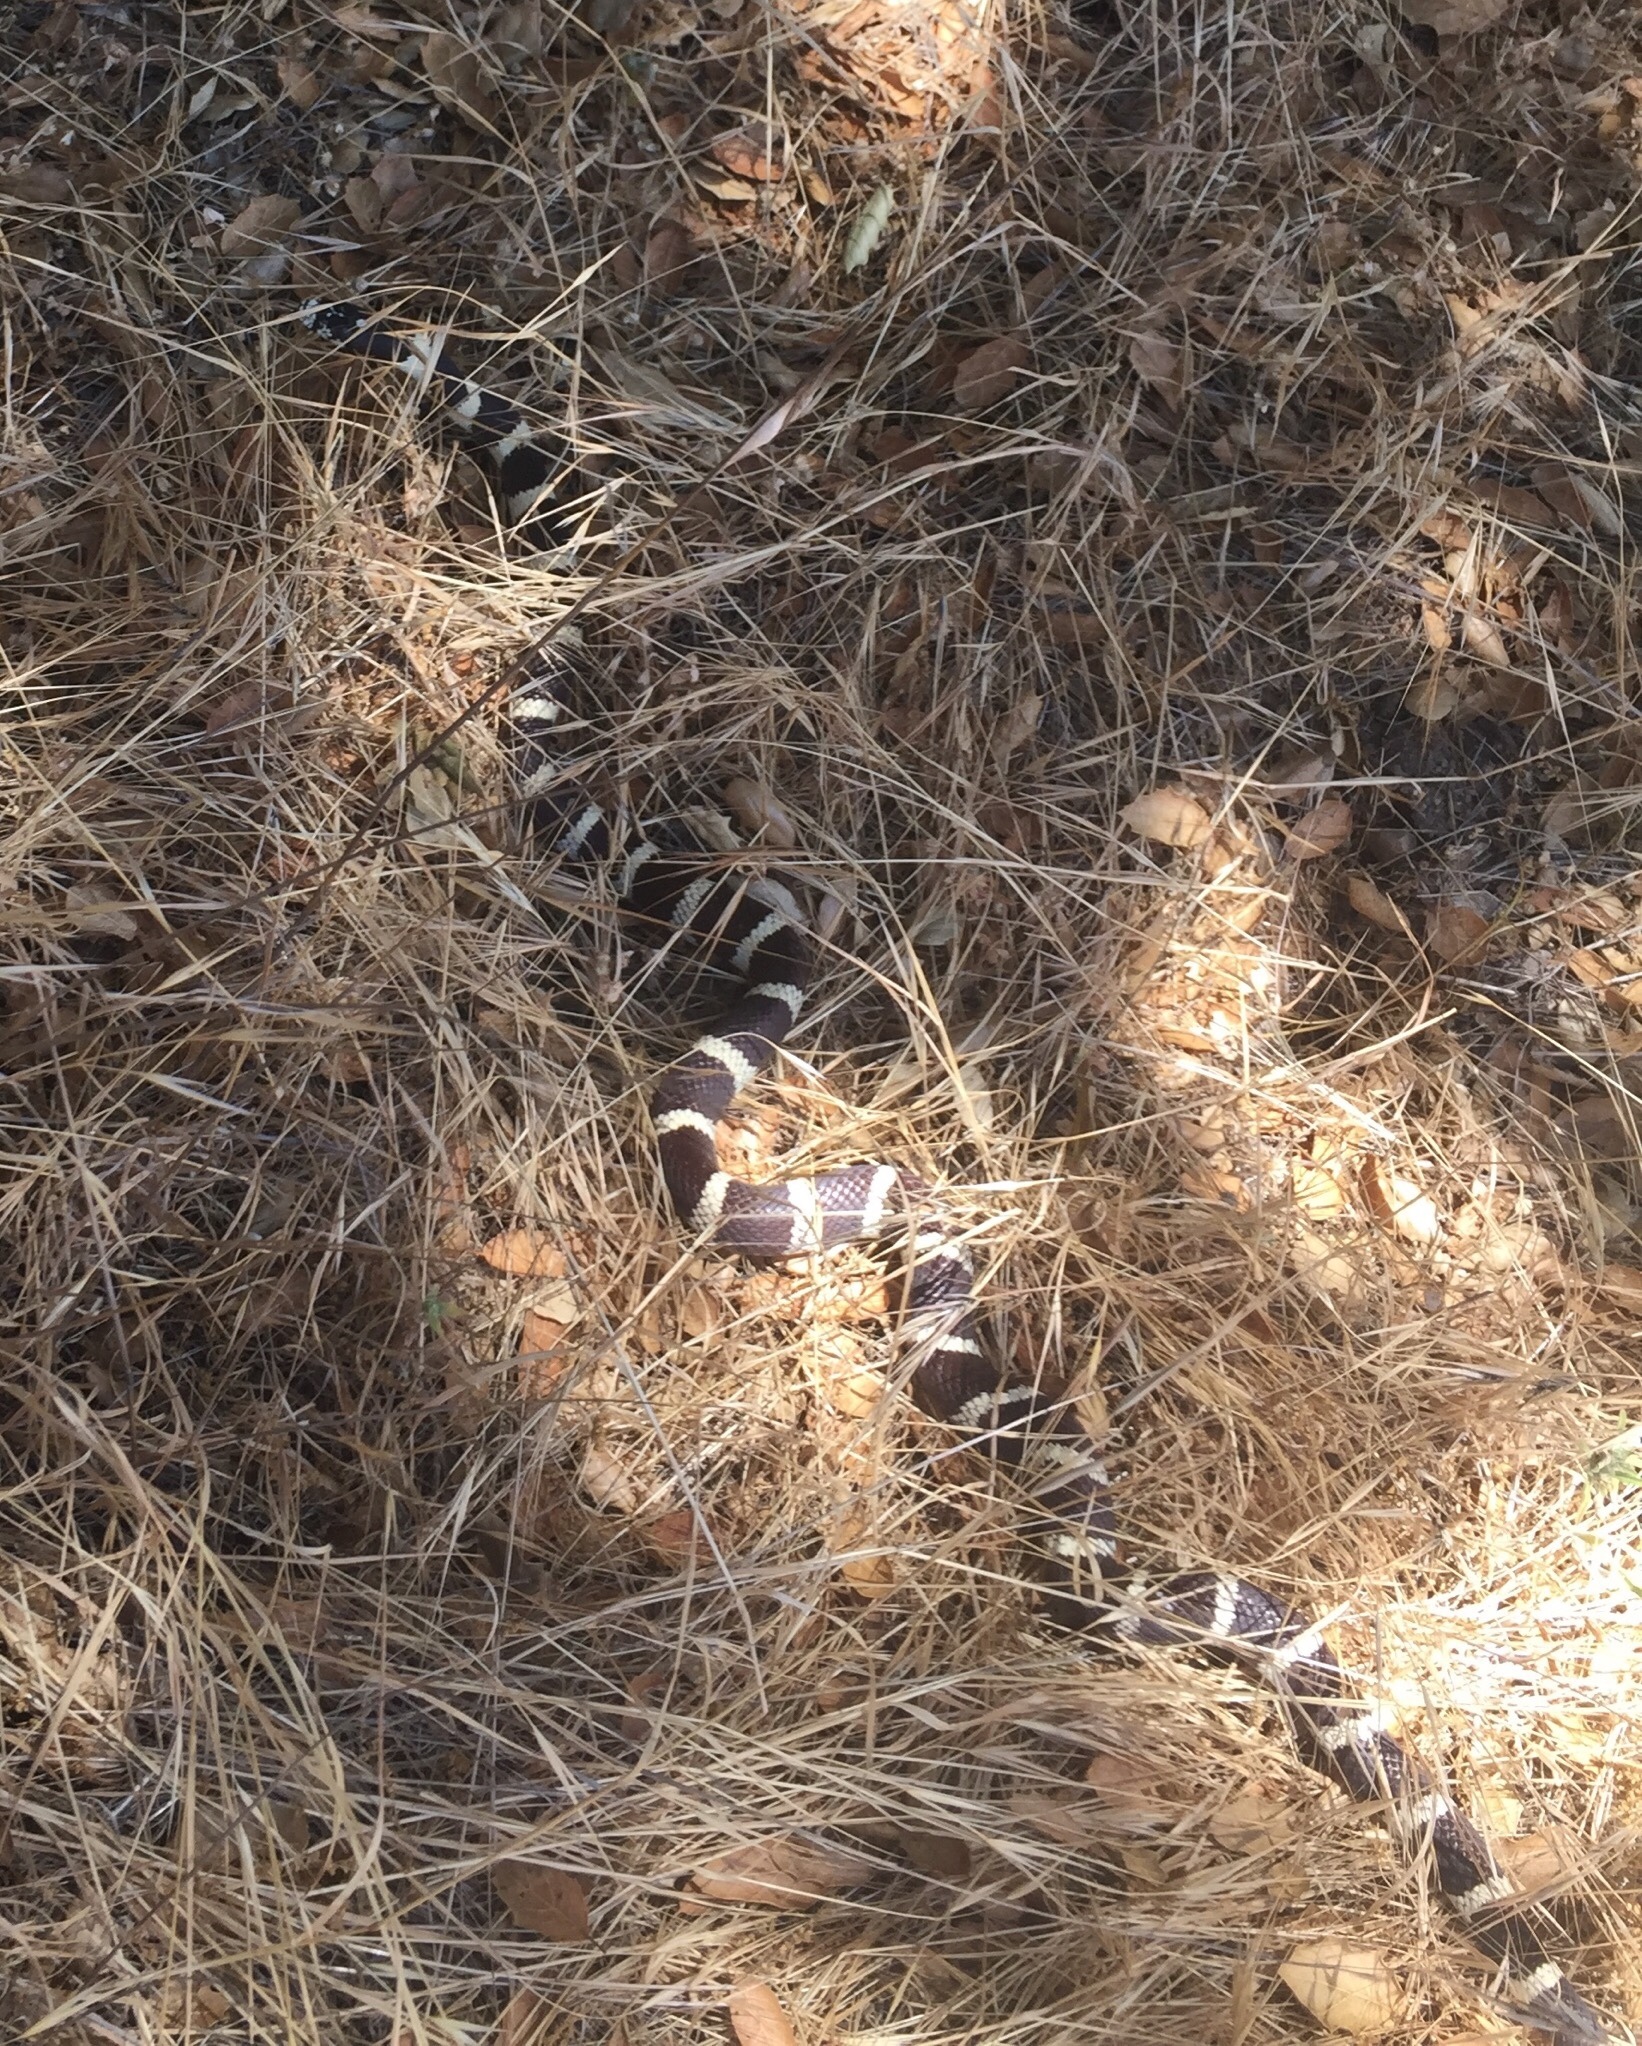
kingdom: Animalia
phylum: Chordata
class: Squamata
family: Colubridae
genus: Lampropeltis
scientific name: Lampropeltis californiae
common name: California kingsnake
